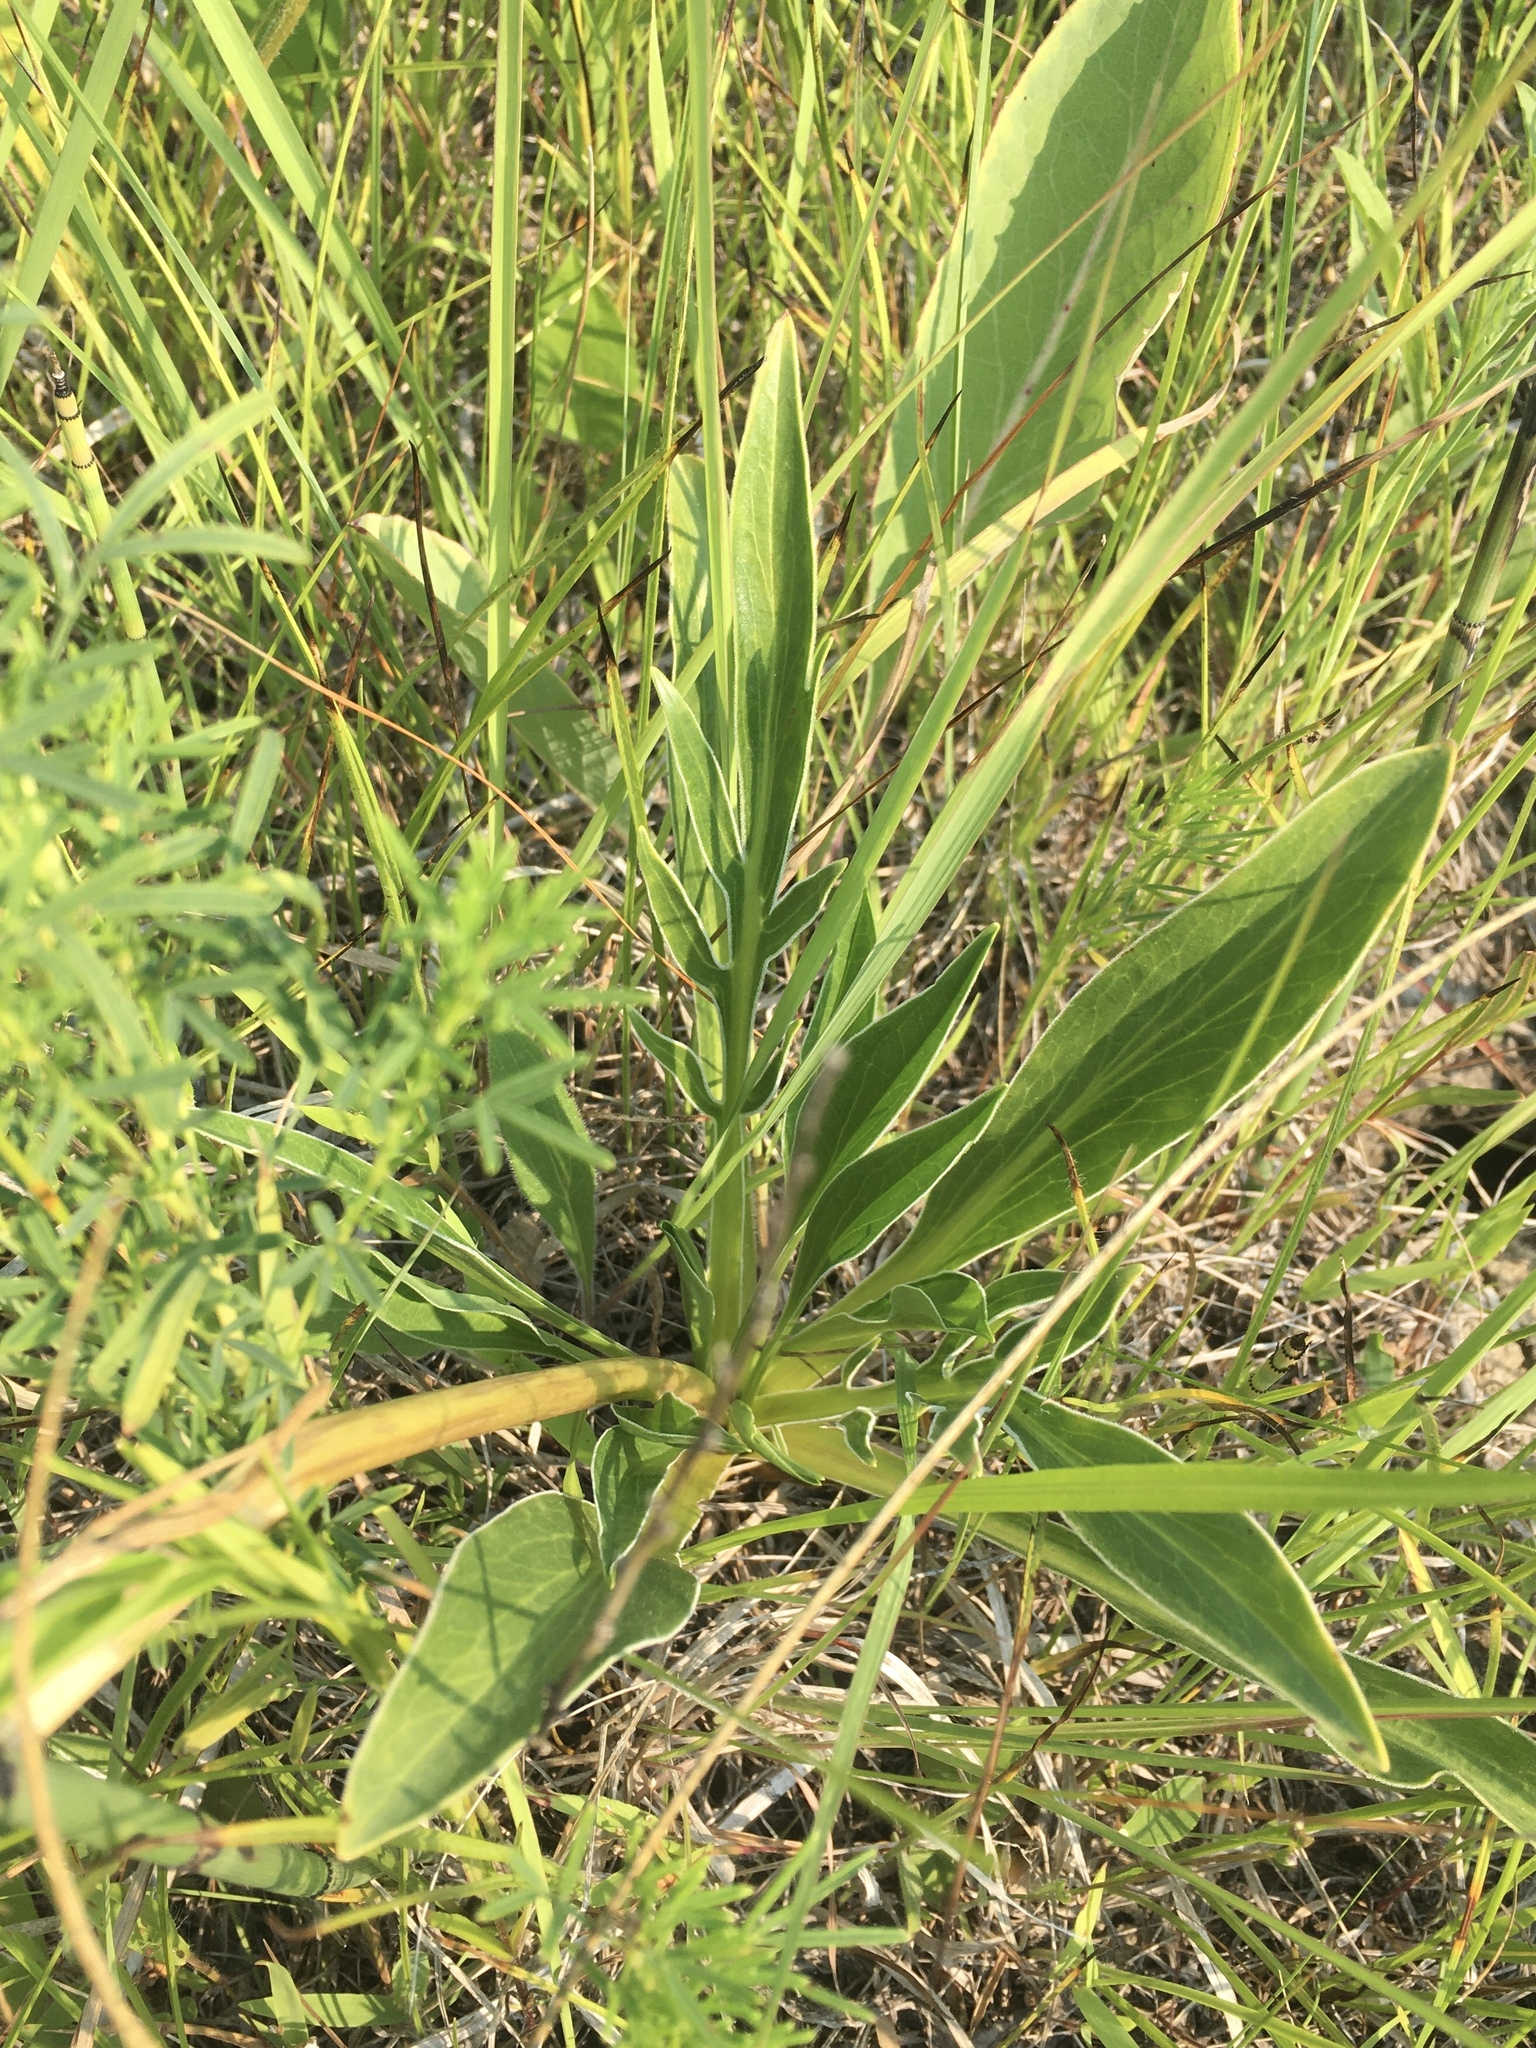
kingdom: Plantae
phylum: Tracheophyta
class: Magnoliopsida
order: Dipsacales
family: Caprifoliaceae
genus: Valeriana
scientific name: Valeriana edulis
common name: Taproot valerian
